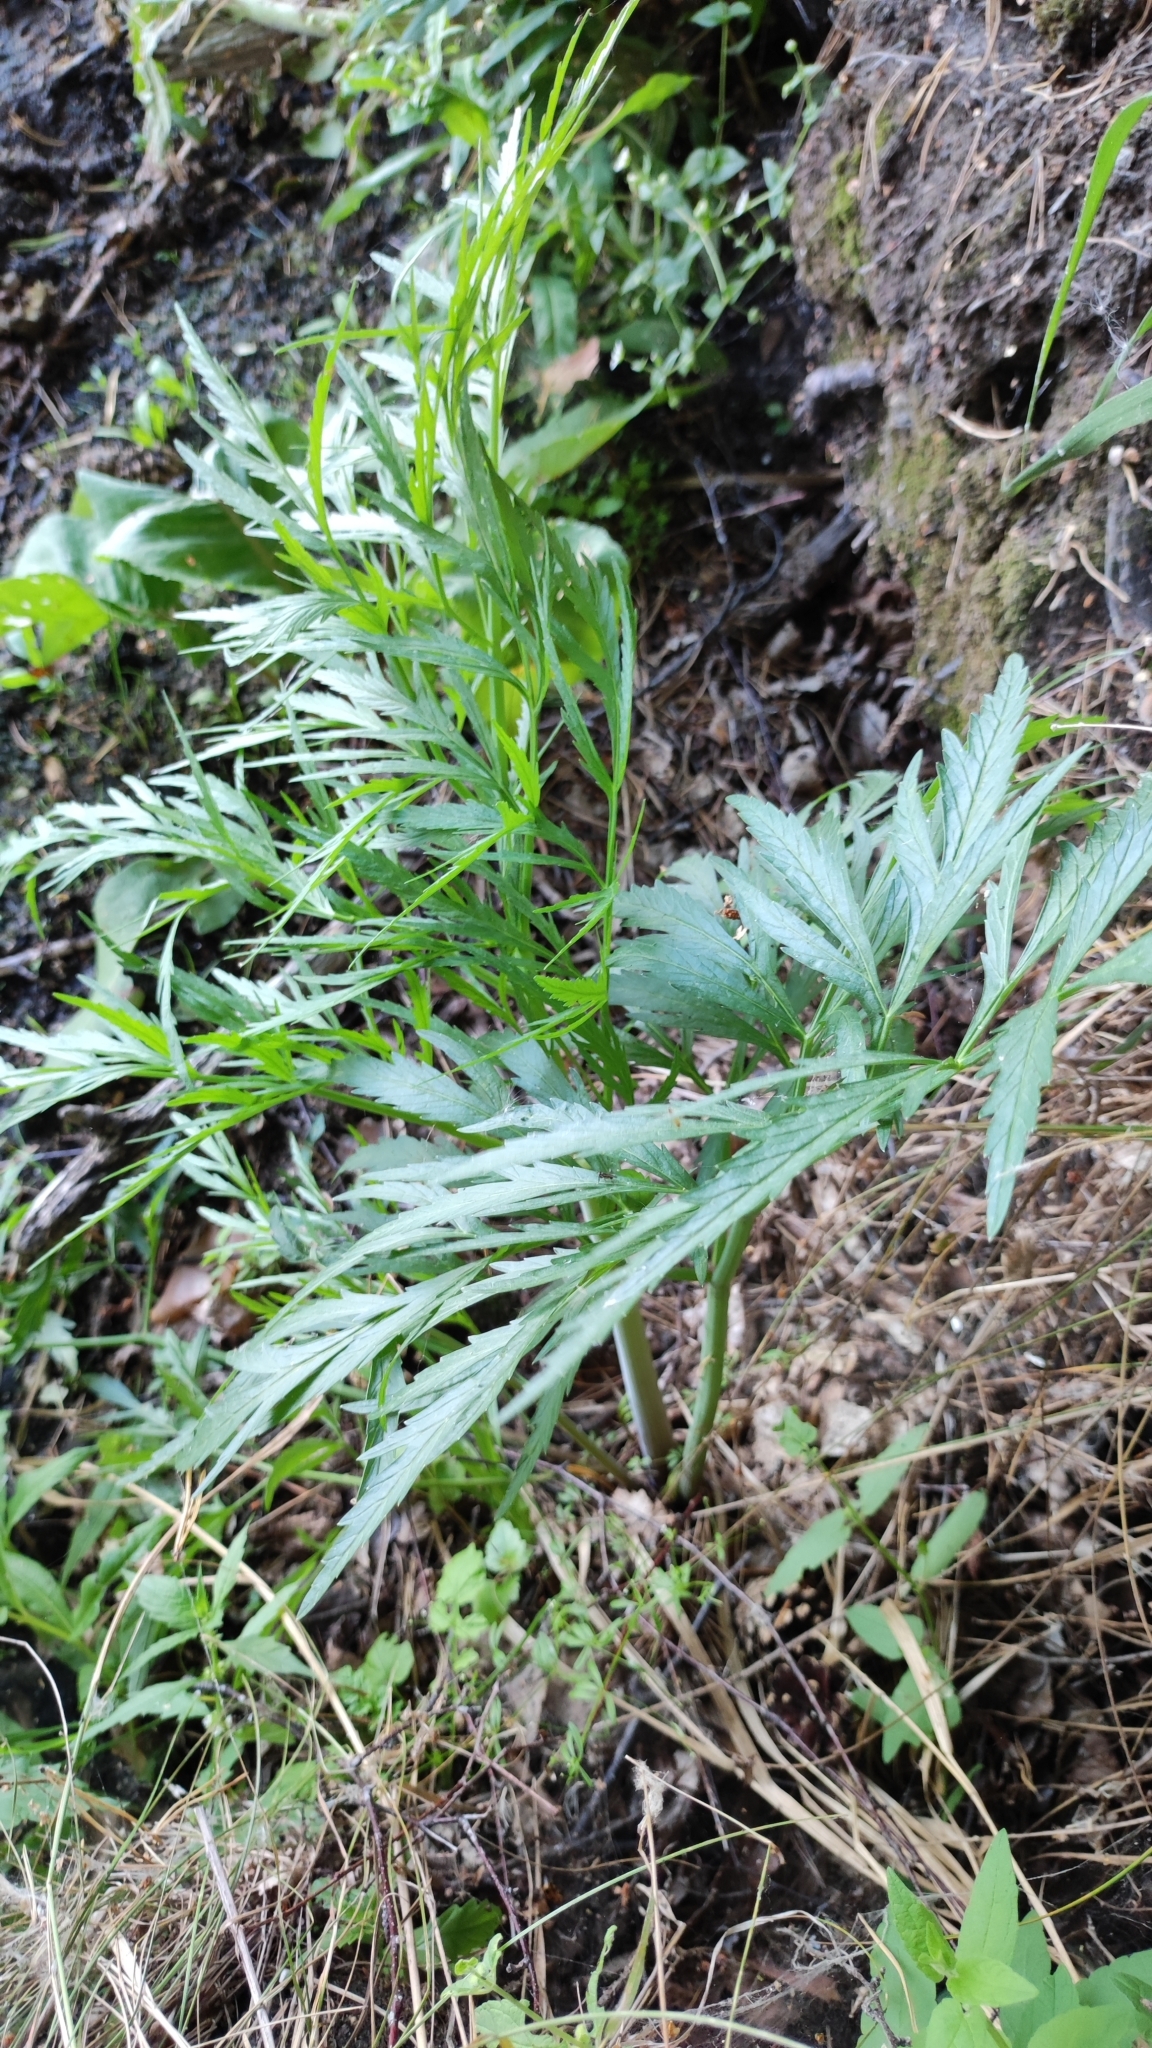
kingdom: Plantae
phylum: Tracheophyta
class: Magnoliopsida
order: Apiales
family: Apiaceae
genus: Cicuta
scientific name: Cicuta virosa
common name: Cowbane
